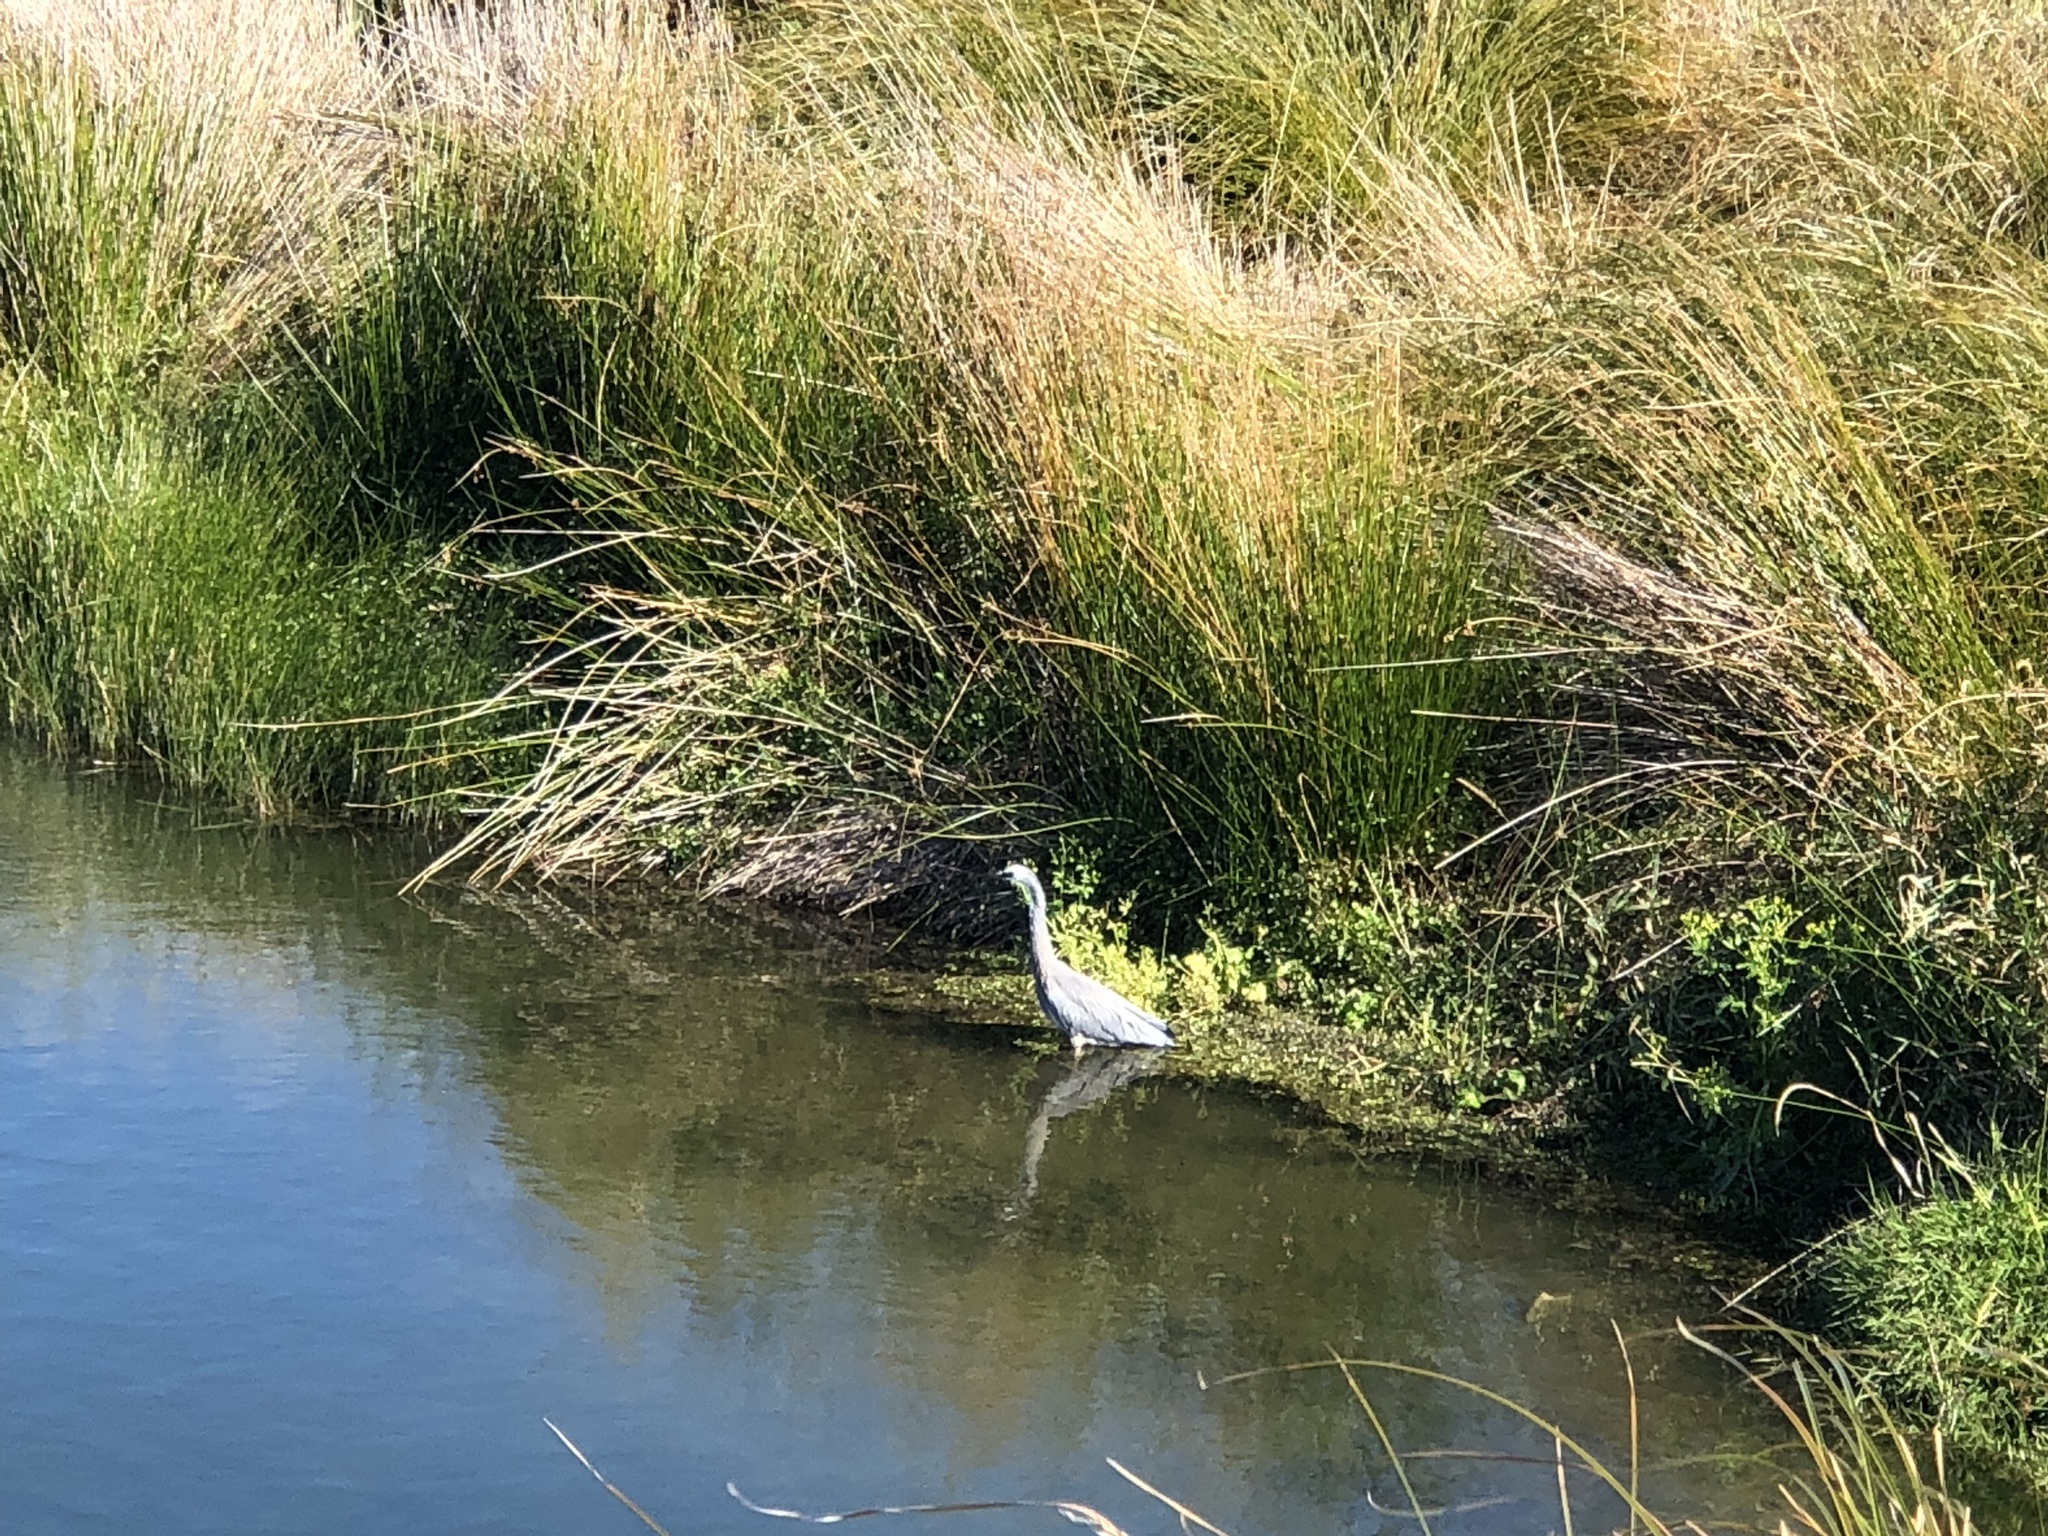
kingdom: Animalia
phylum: Chordata
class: Aves
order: Pelecaniformes
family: Ardeidae
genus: Egretta
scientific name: Egretta novaehollandiae
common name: White-faced heron
